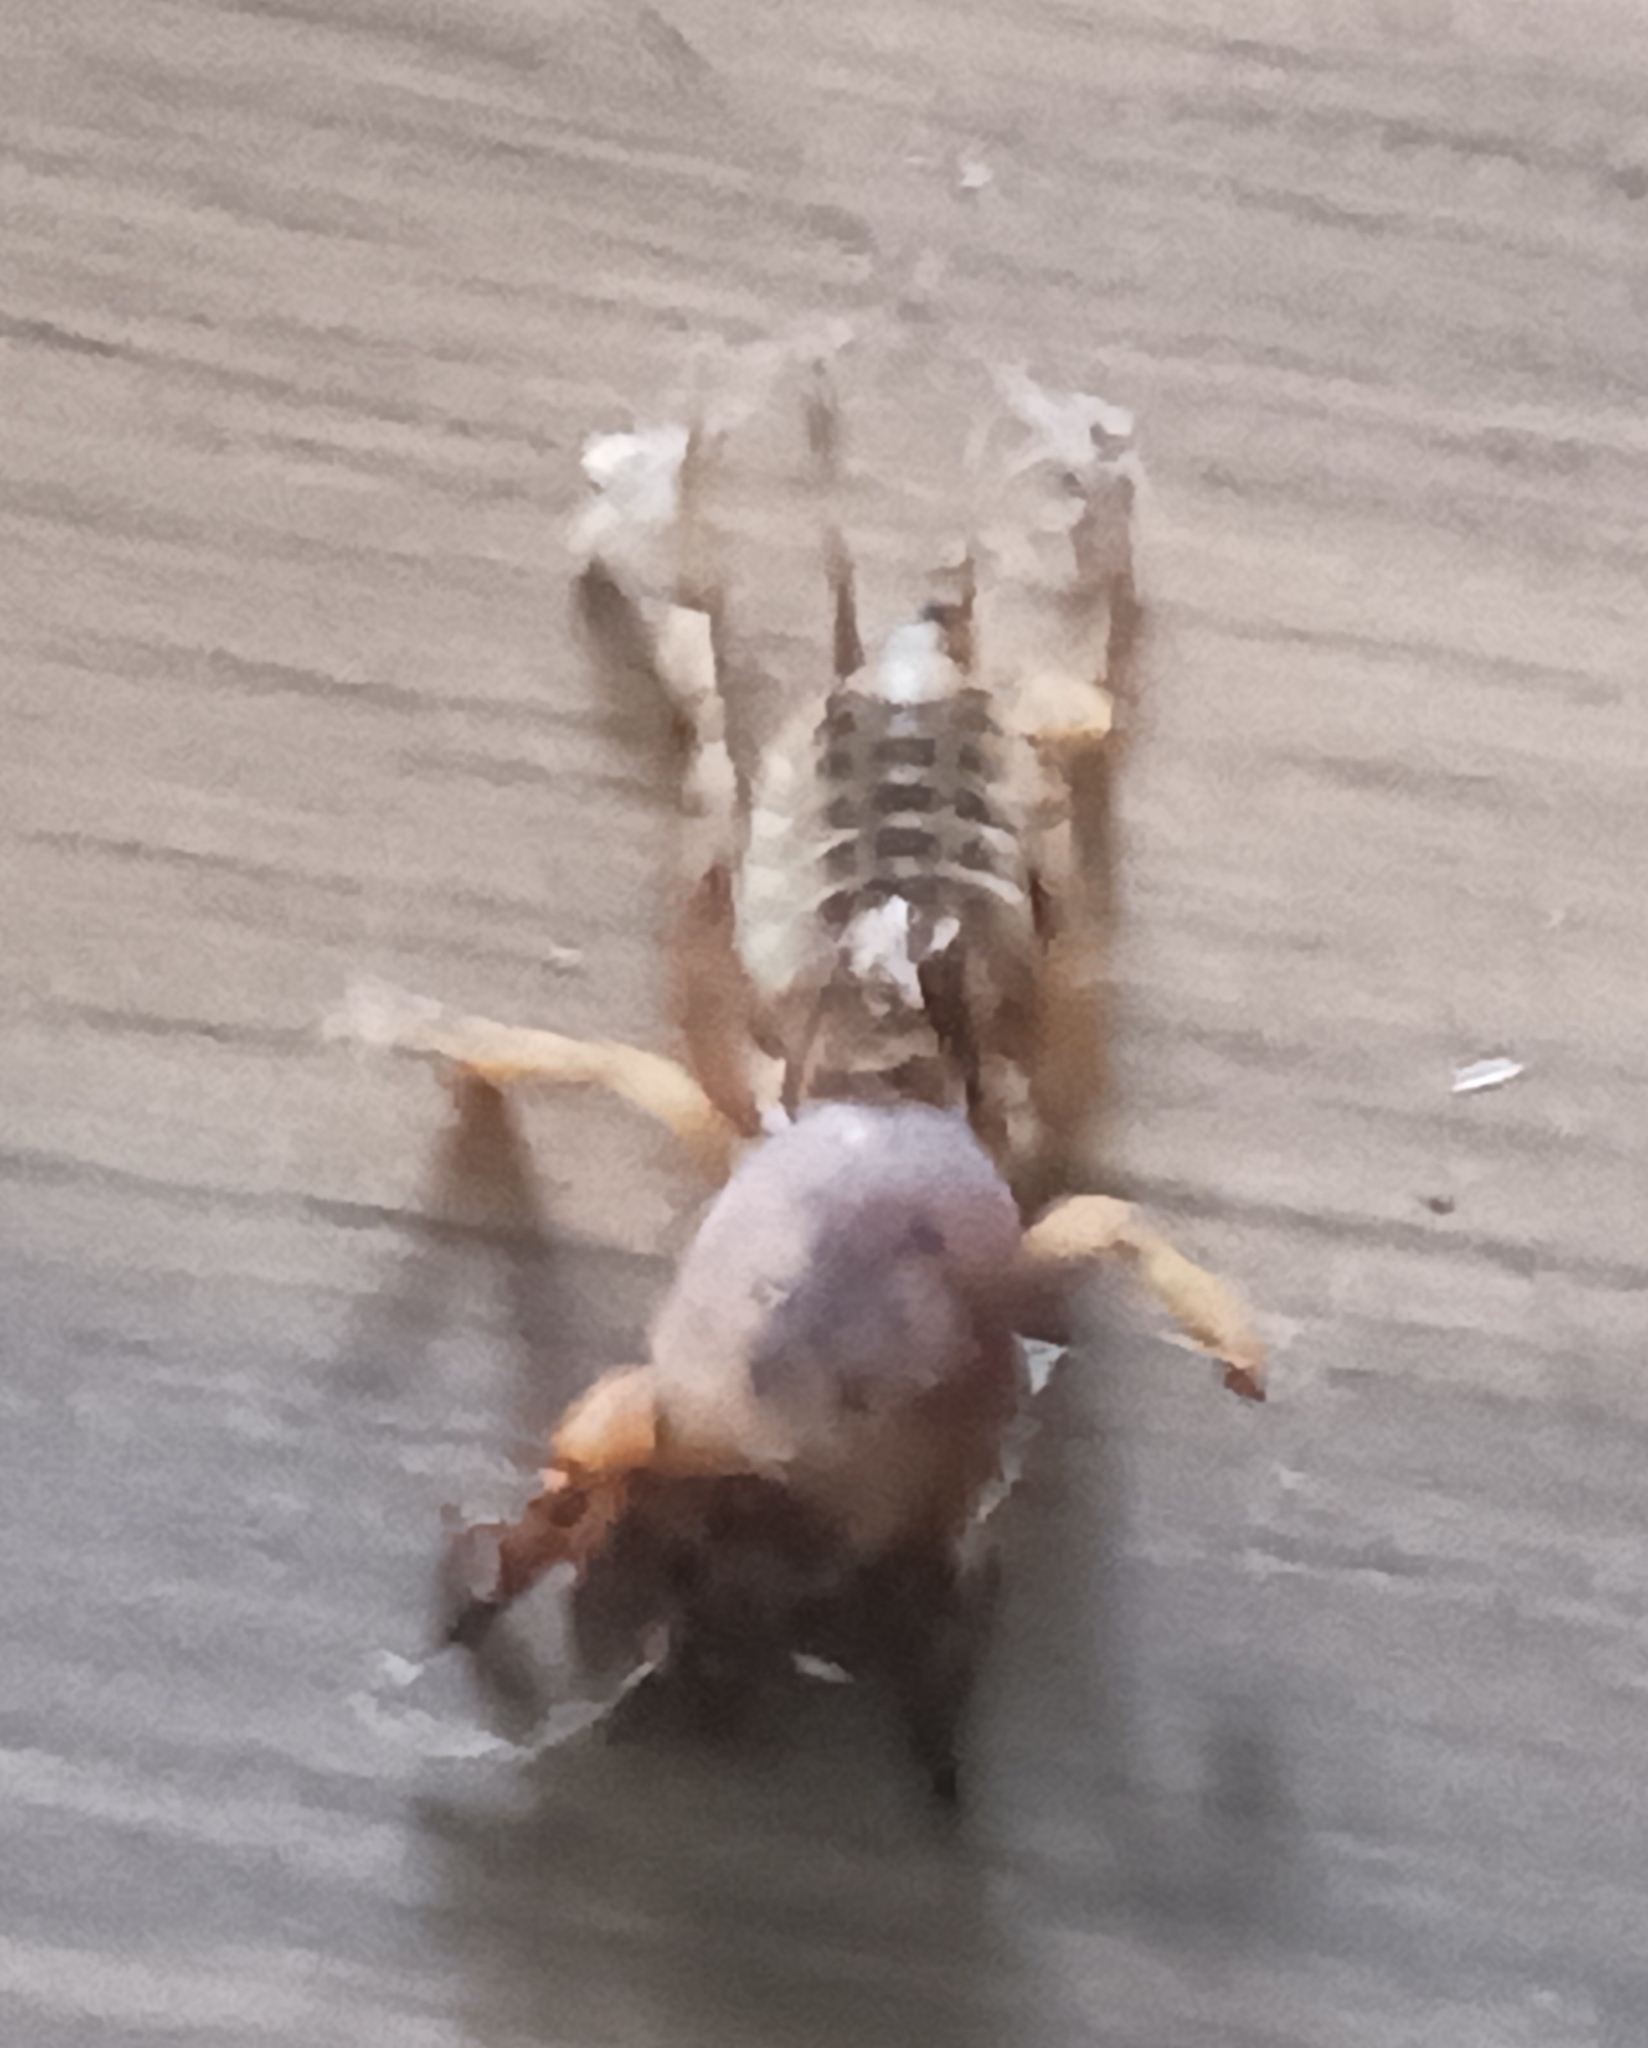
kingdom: Animalia
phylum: Arthropoda
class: Insecta
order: Orthoptera
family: Gryllotalpidae
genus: Neoscapteriscus
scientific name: Neoscapteriscus abbreviatus
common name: Short-winged mole cricket
